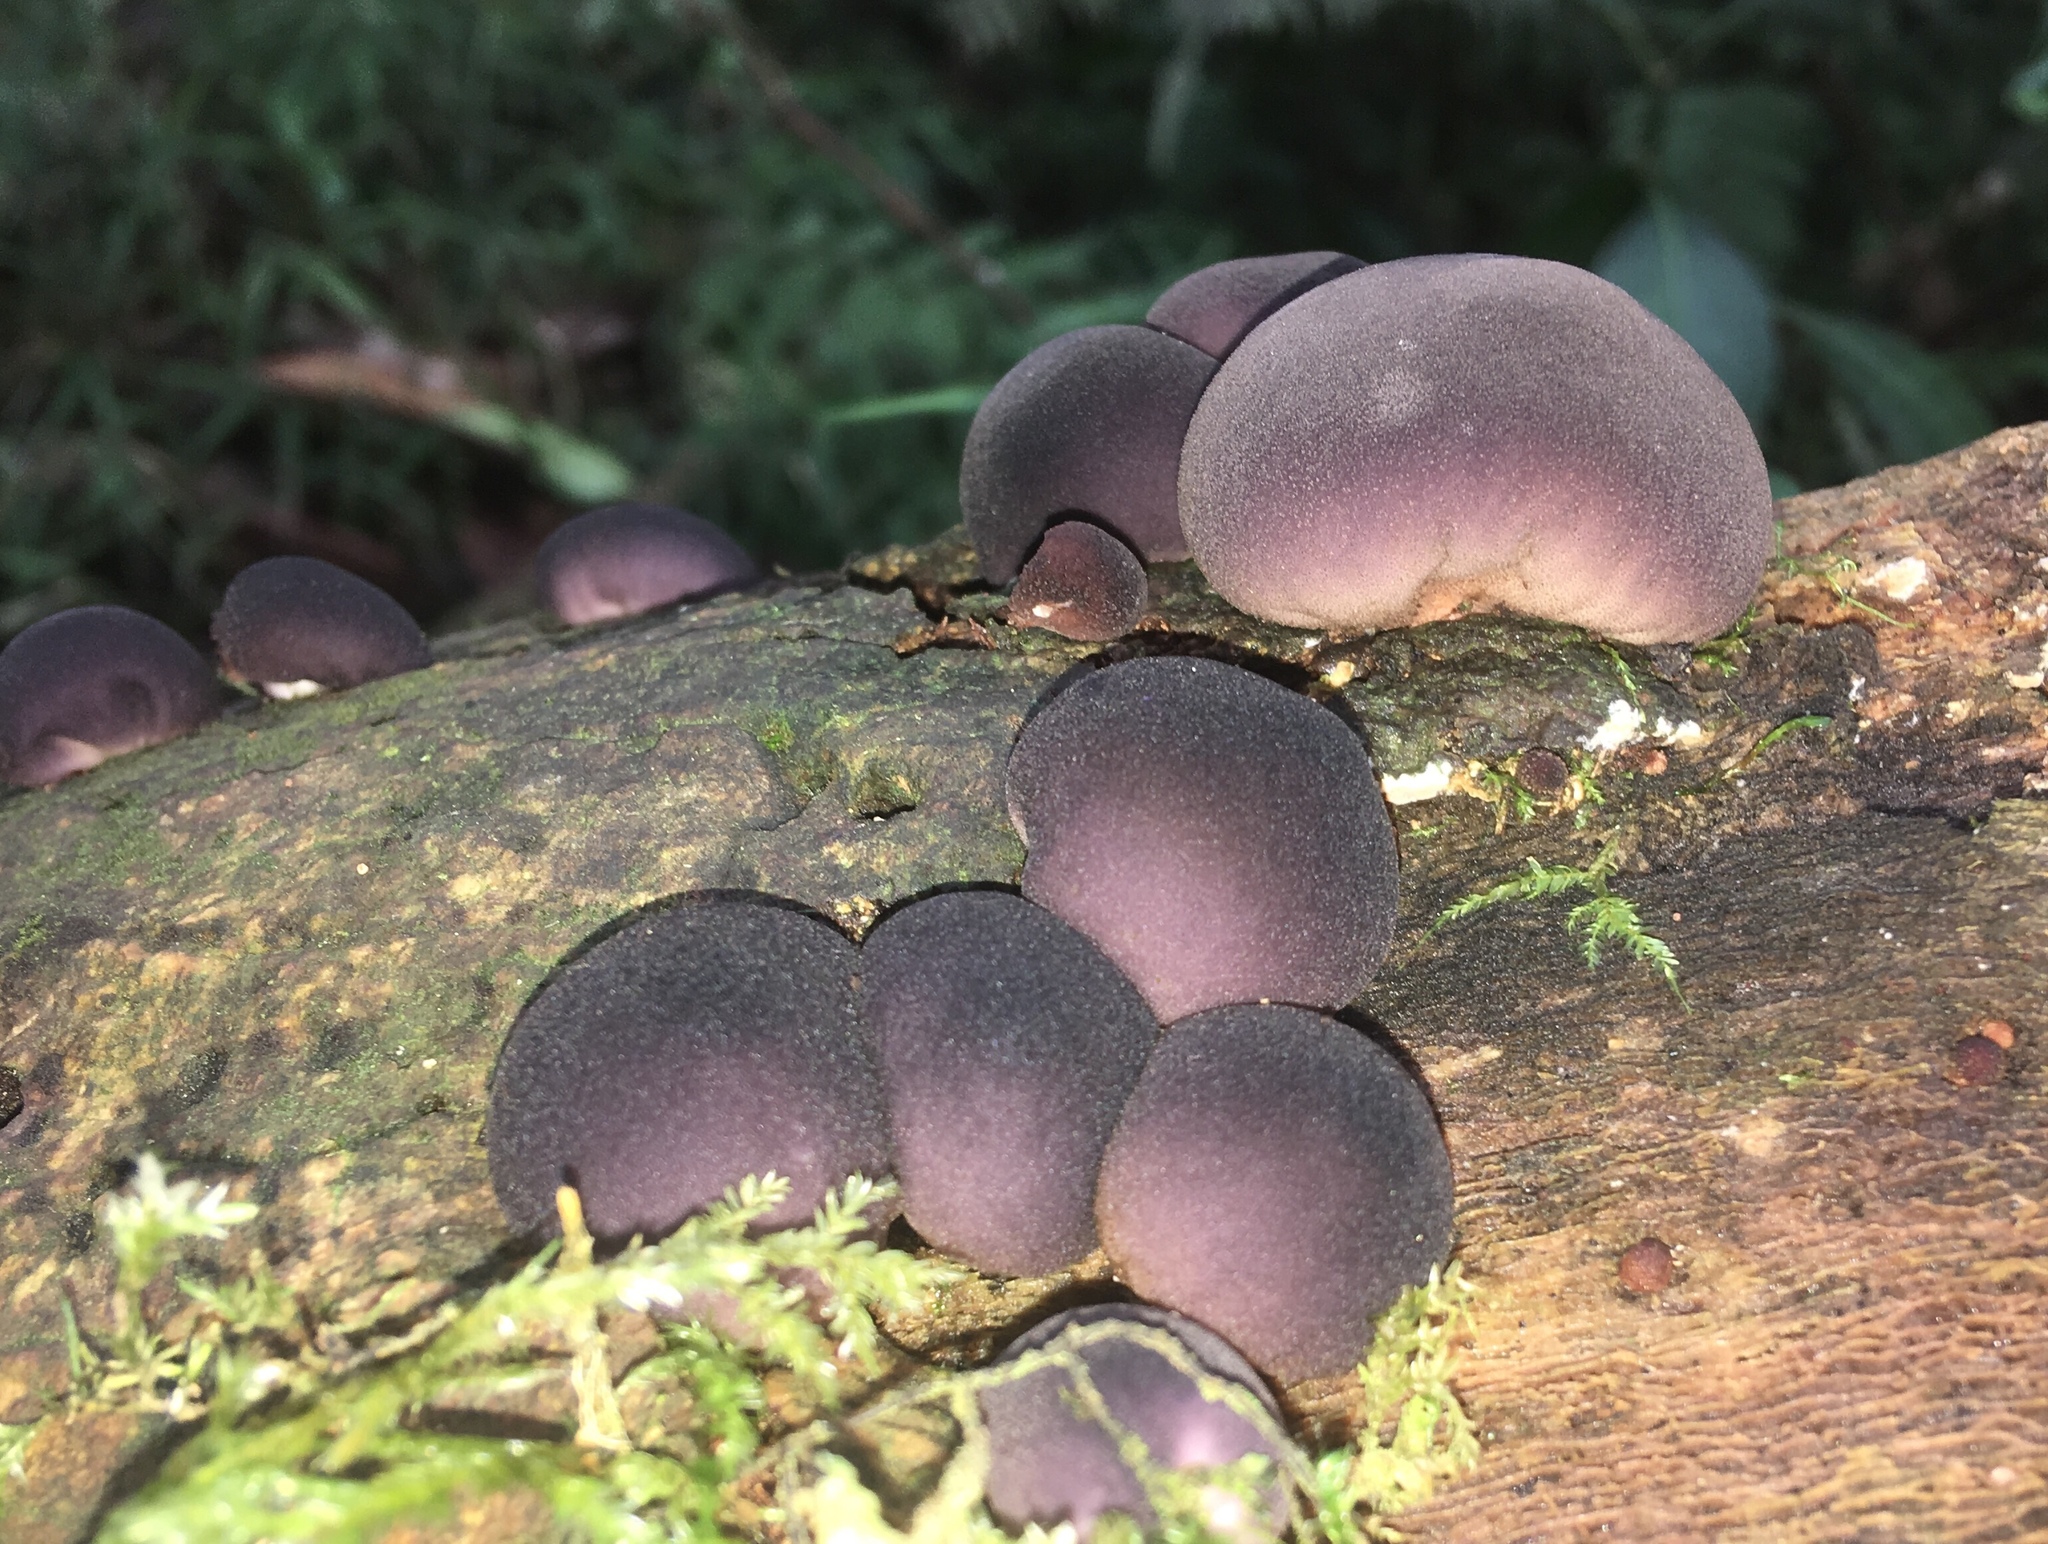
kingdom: Fungi
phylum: Basidiomycota
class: Agaricomycetes
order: Agaricales
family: Lycoperdaceae
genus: Lycoperdon
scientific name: Lycoperdon fuligineum
